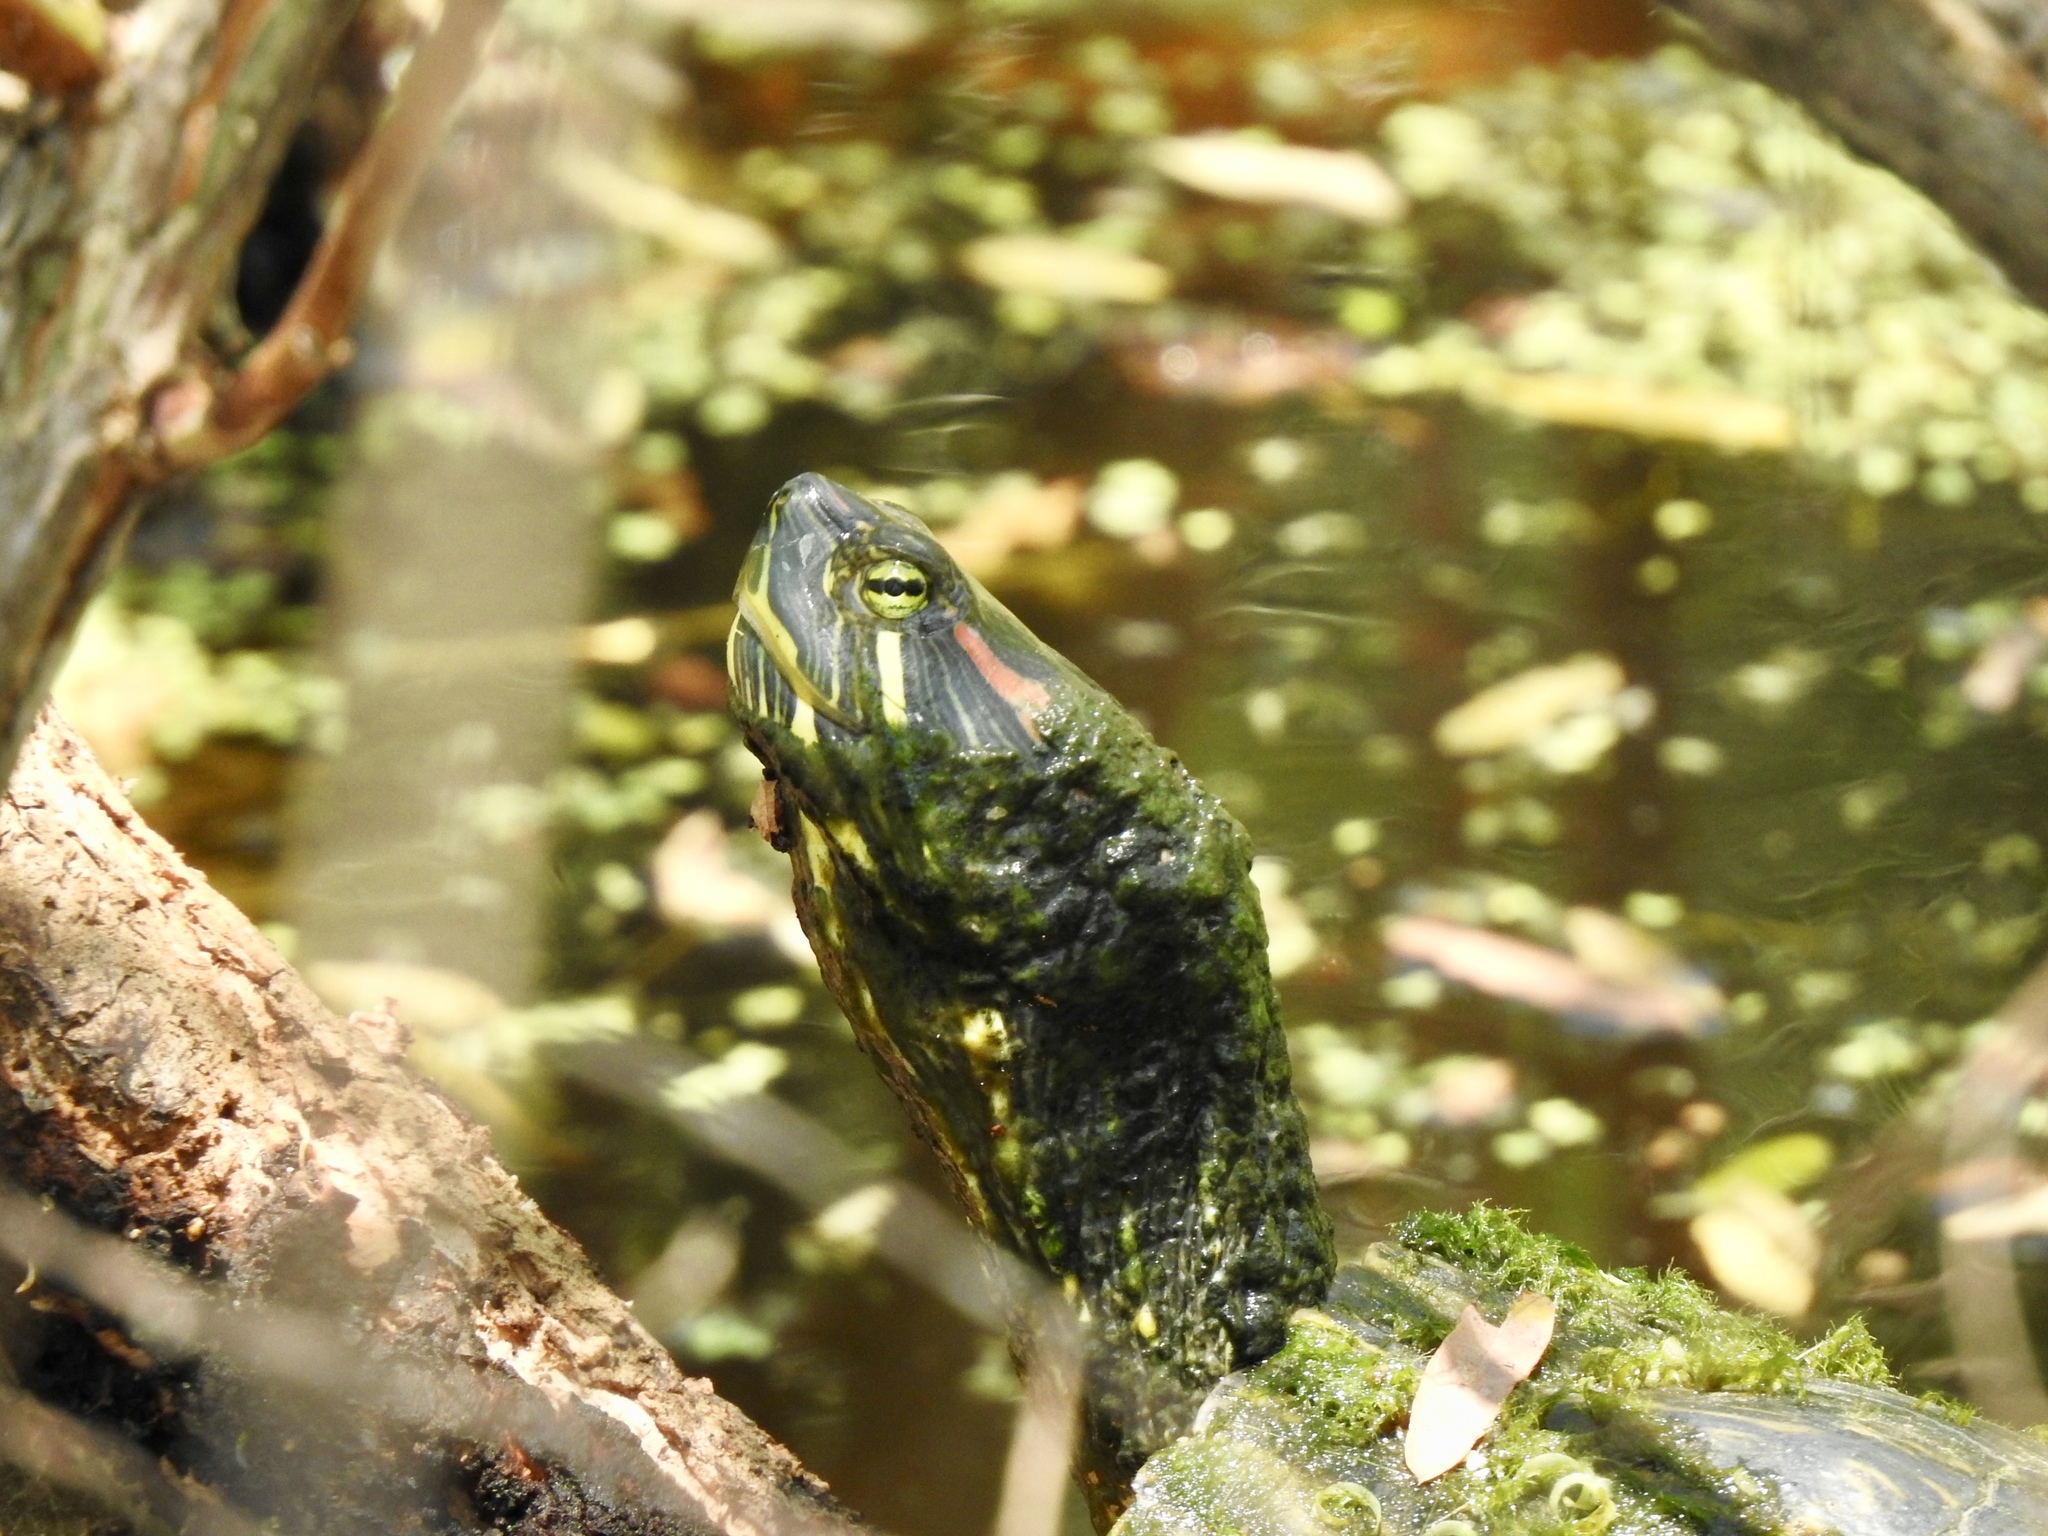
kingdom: Animalia
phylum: Chordata
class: Testudines
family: Emydidae
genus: Trachemys
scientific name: Trachemys scripta
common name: Slider
